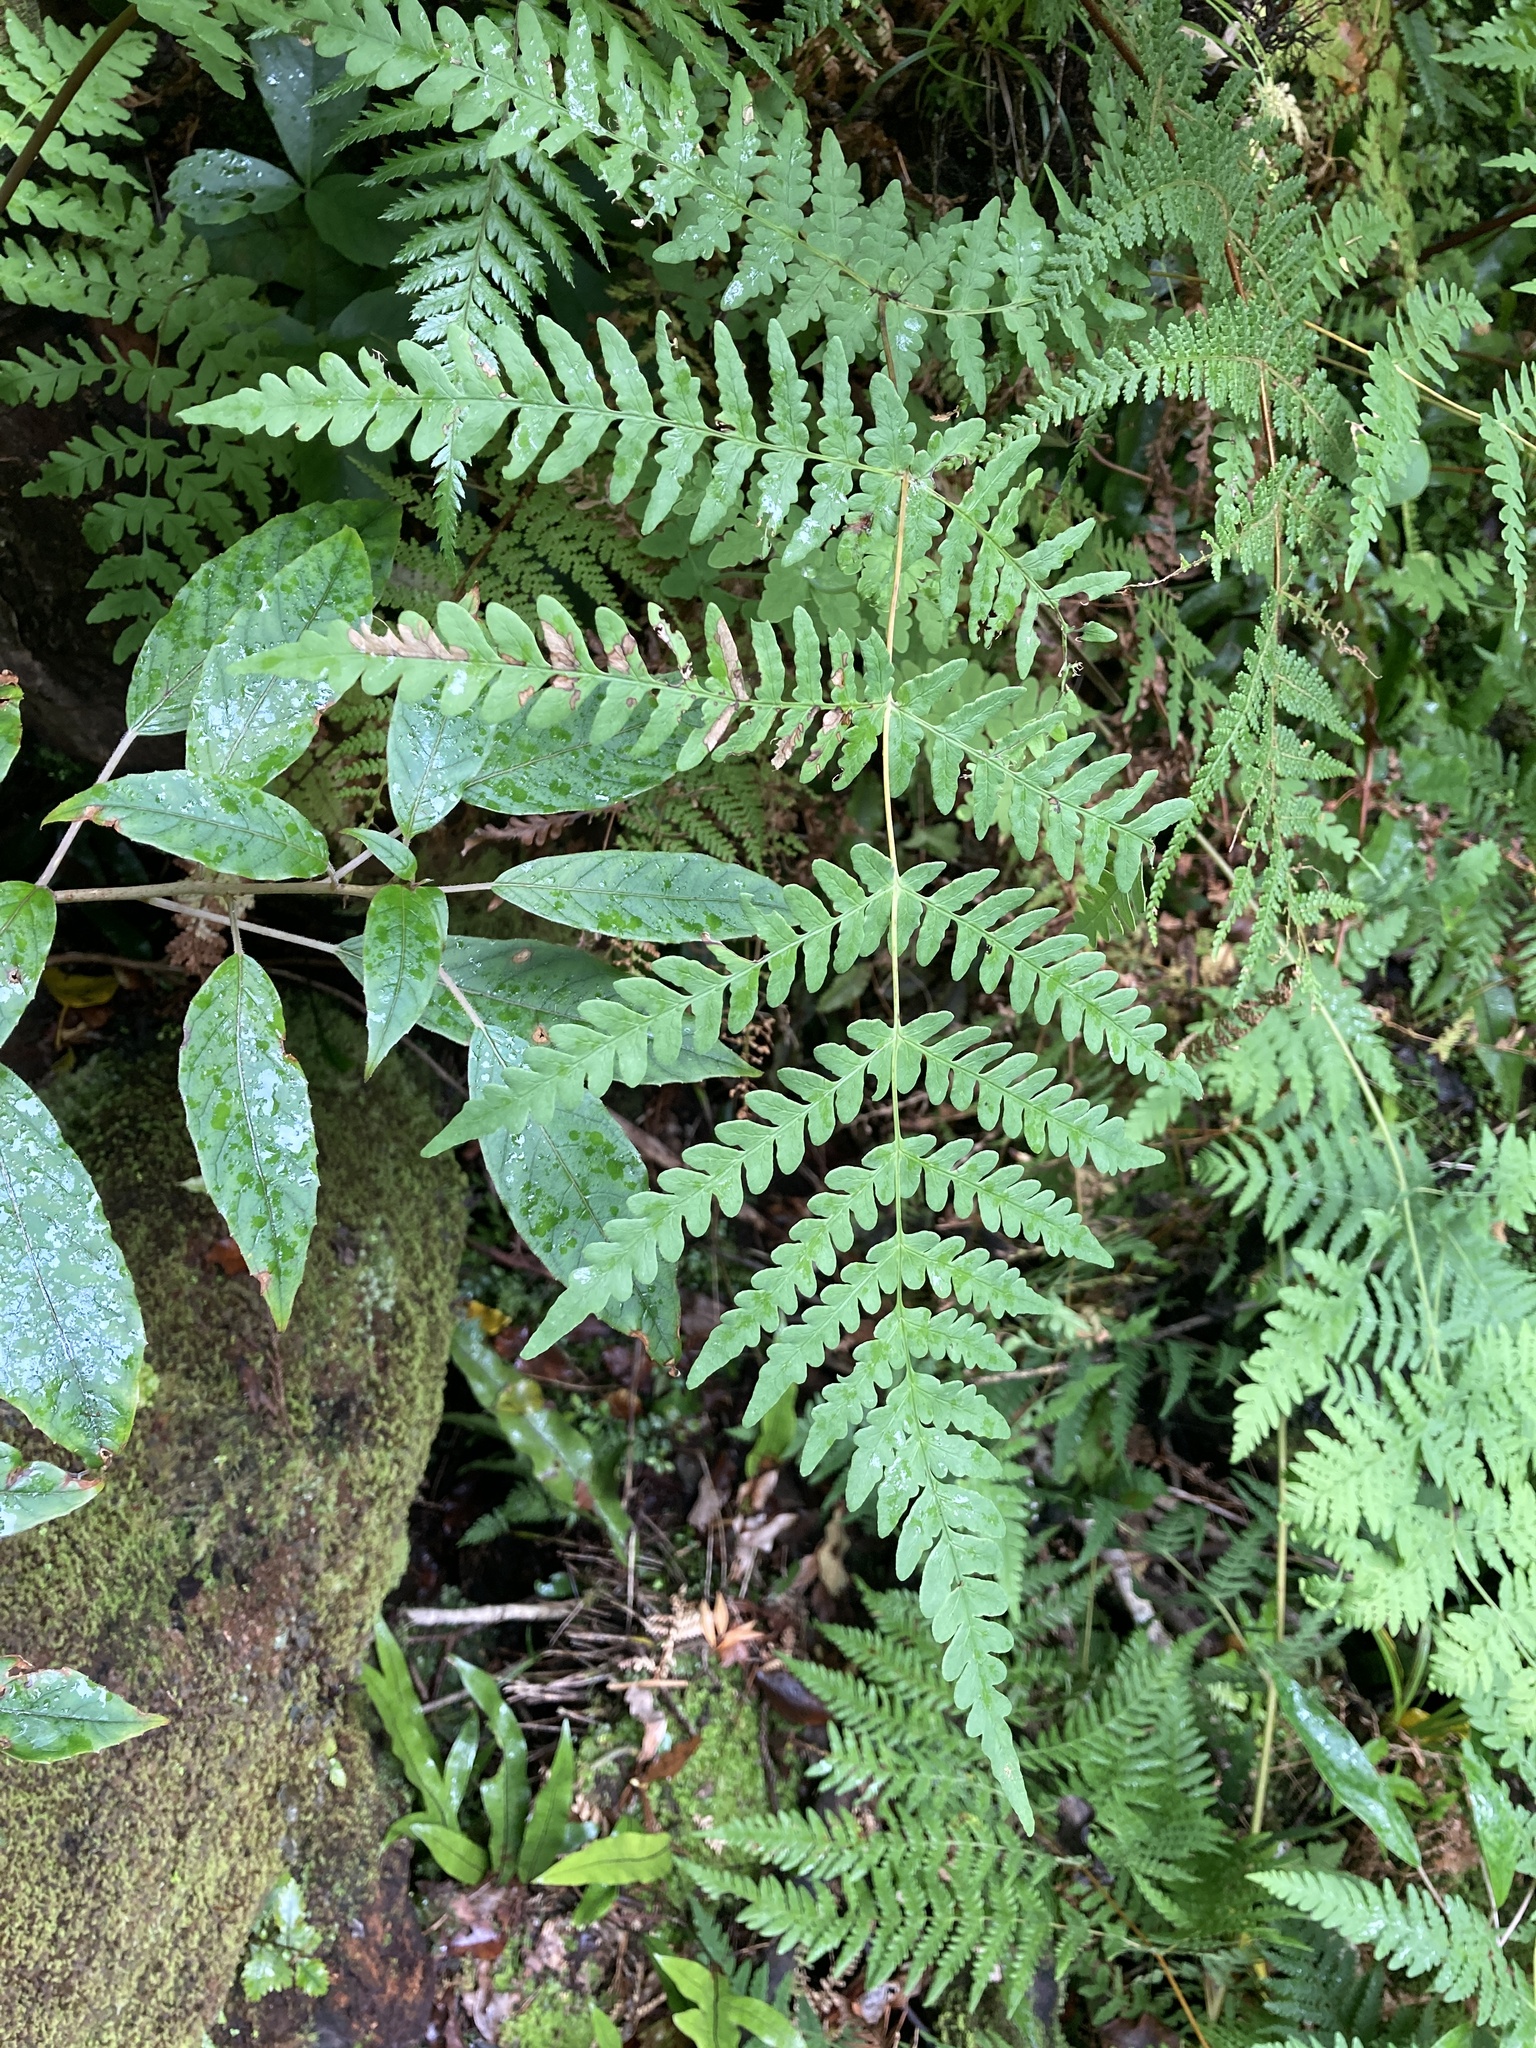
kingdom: Plantae
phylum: Tracheophyta
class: Polypodiopsida
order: Polypodiales
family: Dennstaedtiaceae
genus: Histiopteris
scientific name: Histiopteris incisa
